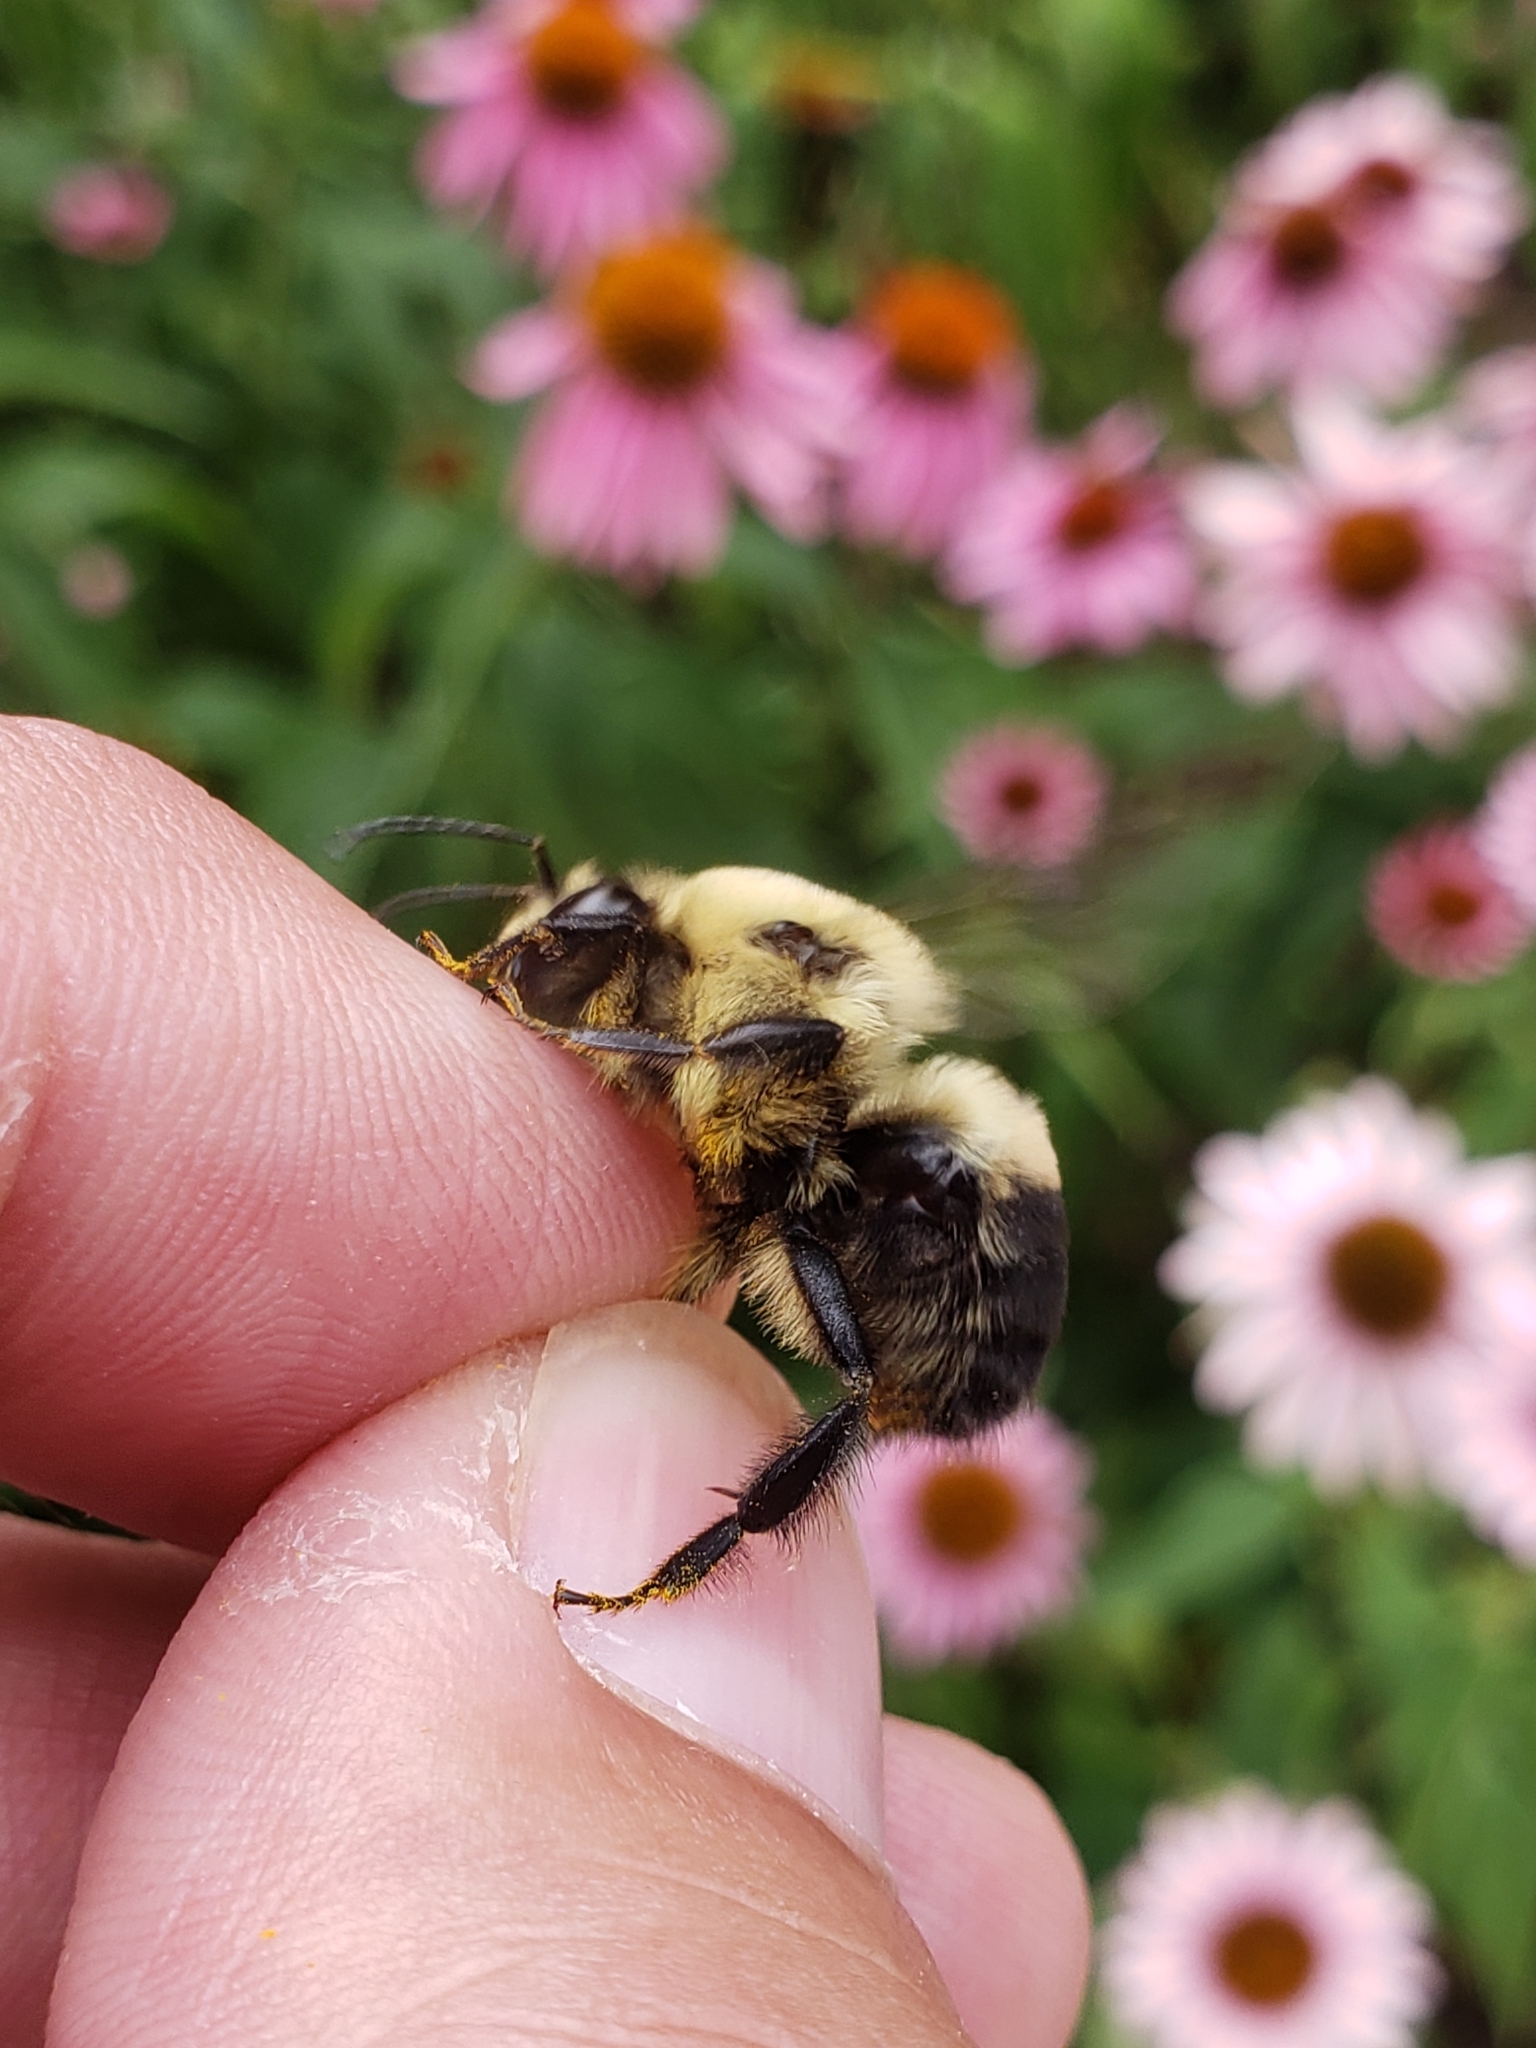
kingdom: Animalia
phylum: Arthropoda
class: Insecta
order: Hymenoptera
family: Apidae
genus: Bombus
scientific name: Bombus griseocollis
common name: Brown-belted bumble bee
